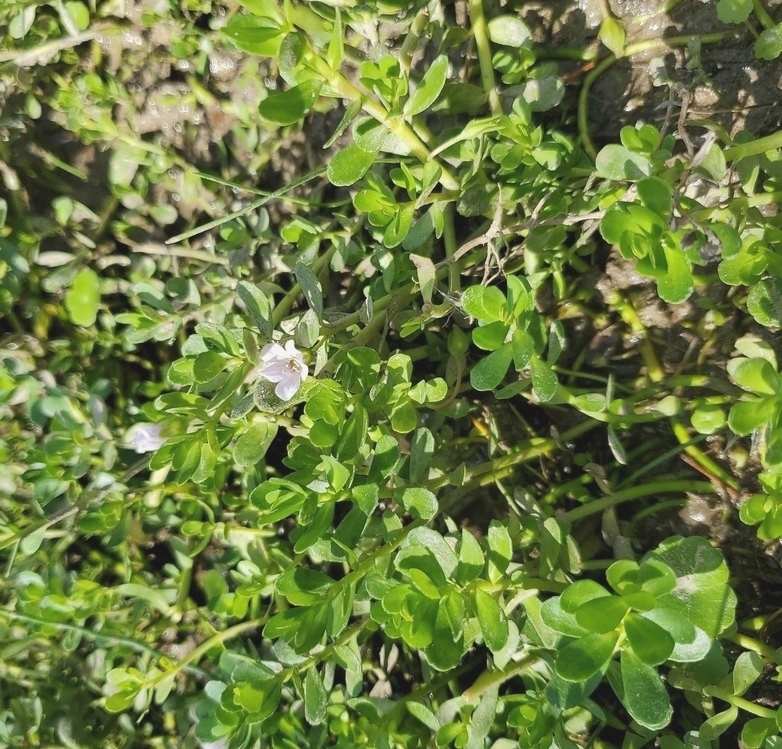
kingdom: Plantae
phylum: Tracheophyta
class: Magnoliopsida
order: Lamiales
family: Plantaginaceae
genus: Bacopa
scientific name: Bacopa monnieri
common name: Indian-pennywort
